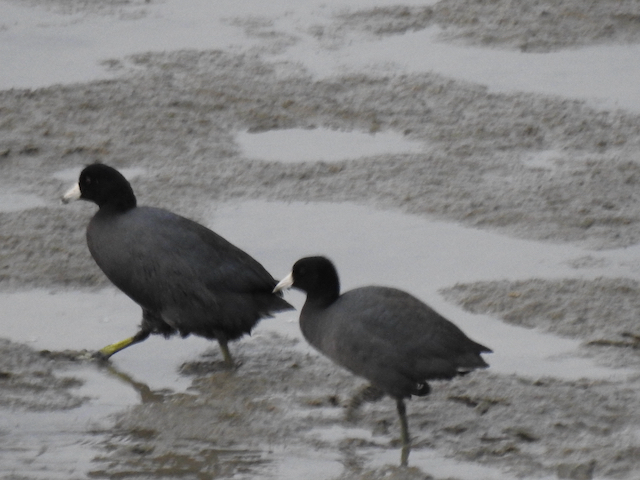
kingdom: Animalia
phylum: Chordata
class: Aves
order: Gruiformes
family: Rallidae
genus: Fulica
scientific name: Fulica americana
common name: American coot
